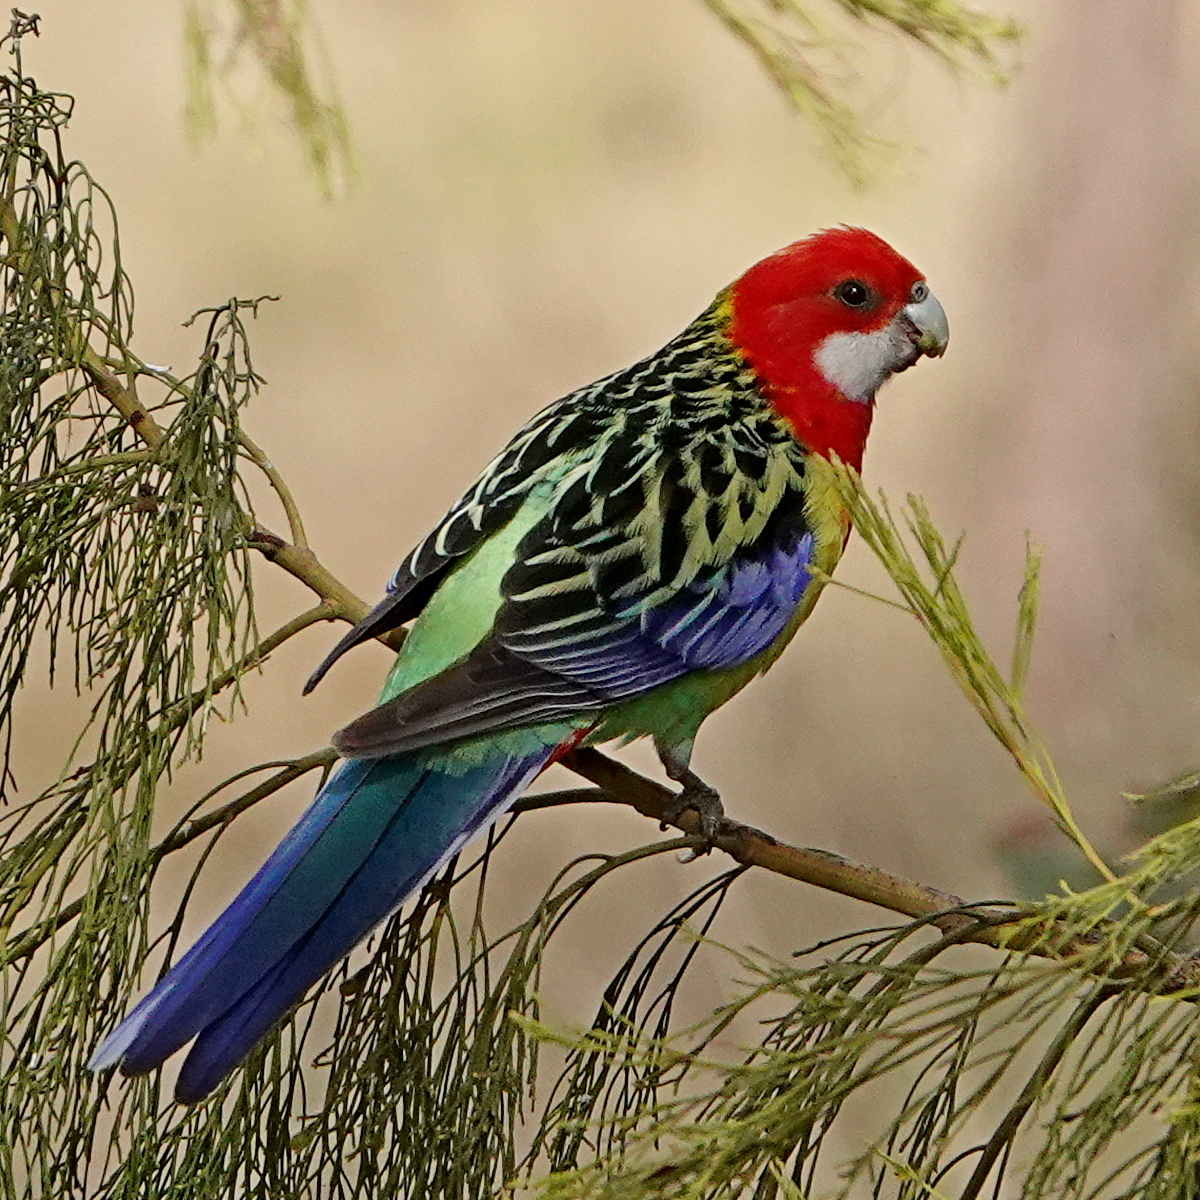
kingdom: Animalia
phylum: Chordata
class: Aves
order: Psittaciformes
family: Psittacidae
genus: Platycercus
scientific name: Platycercus eximius
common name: Eastern rosella
